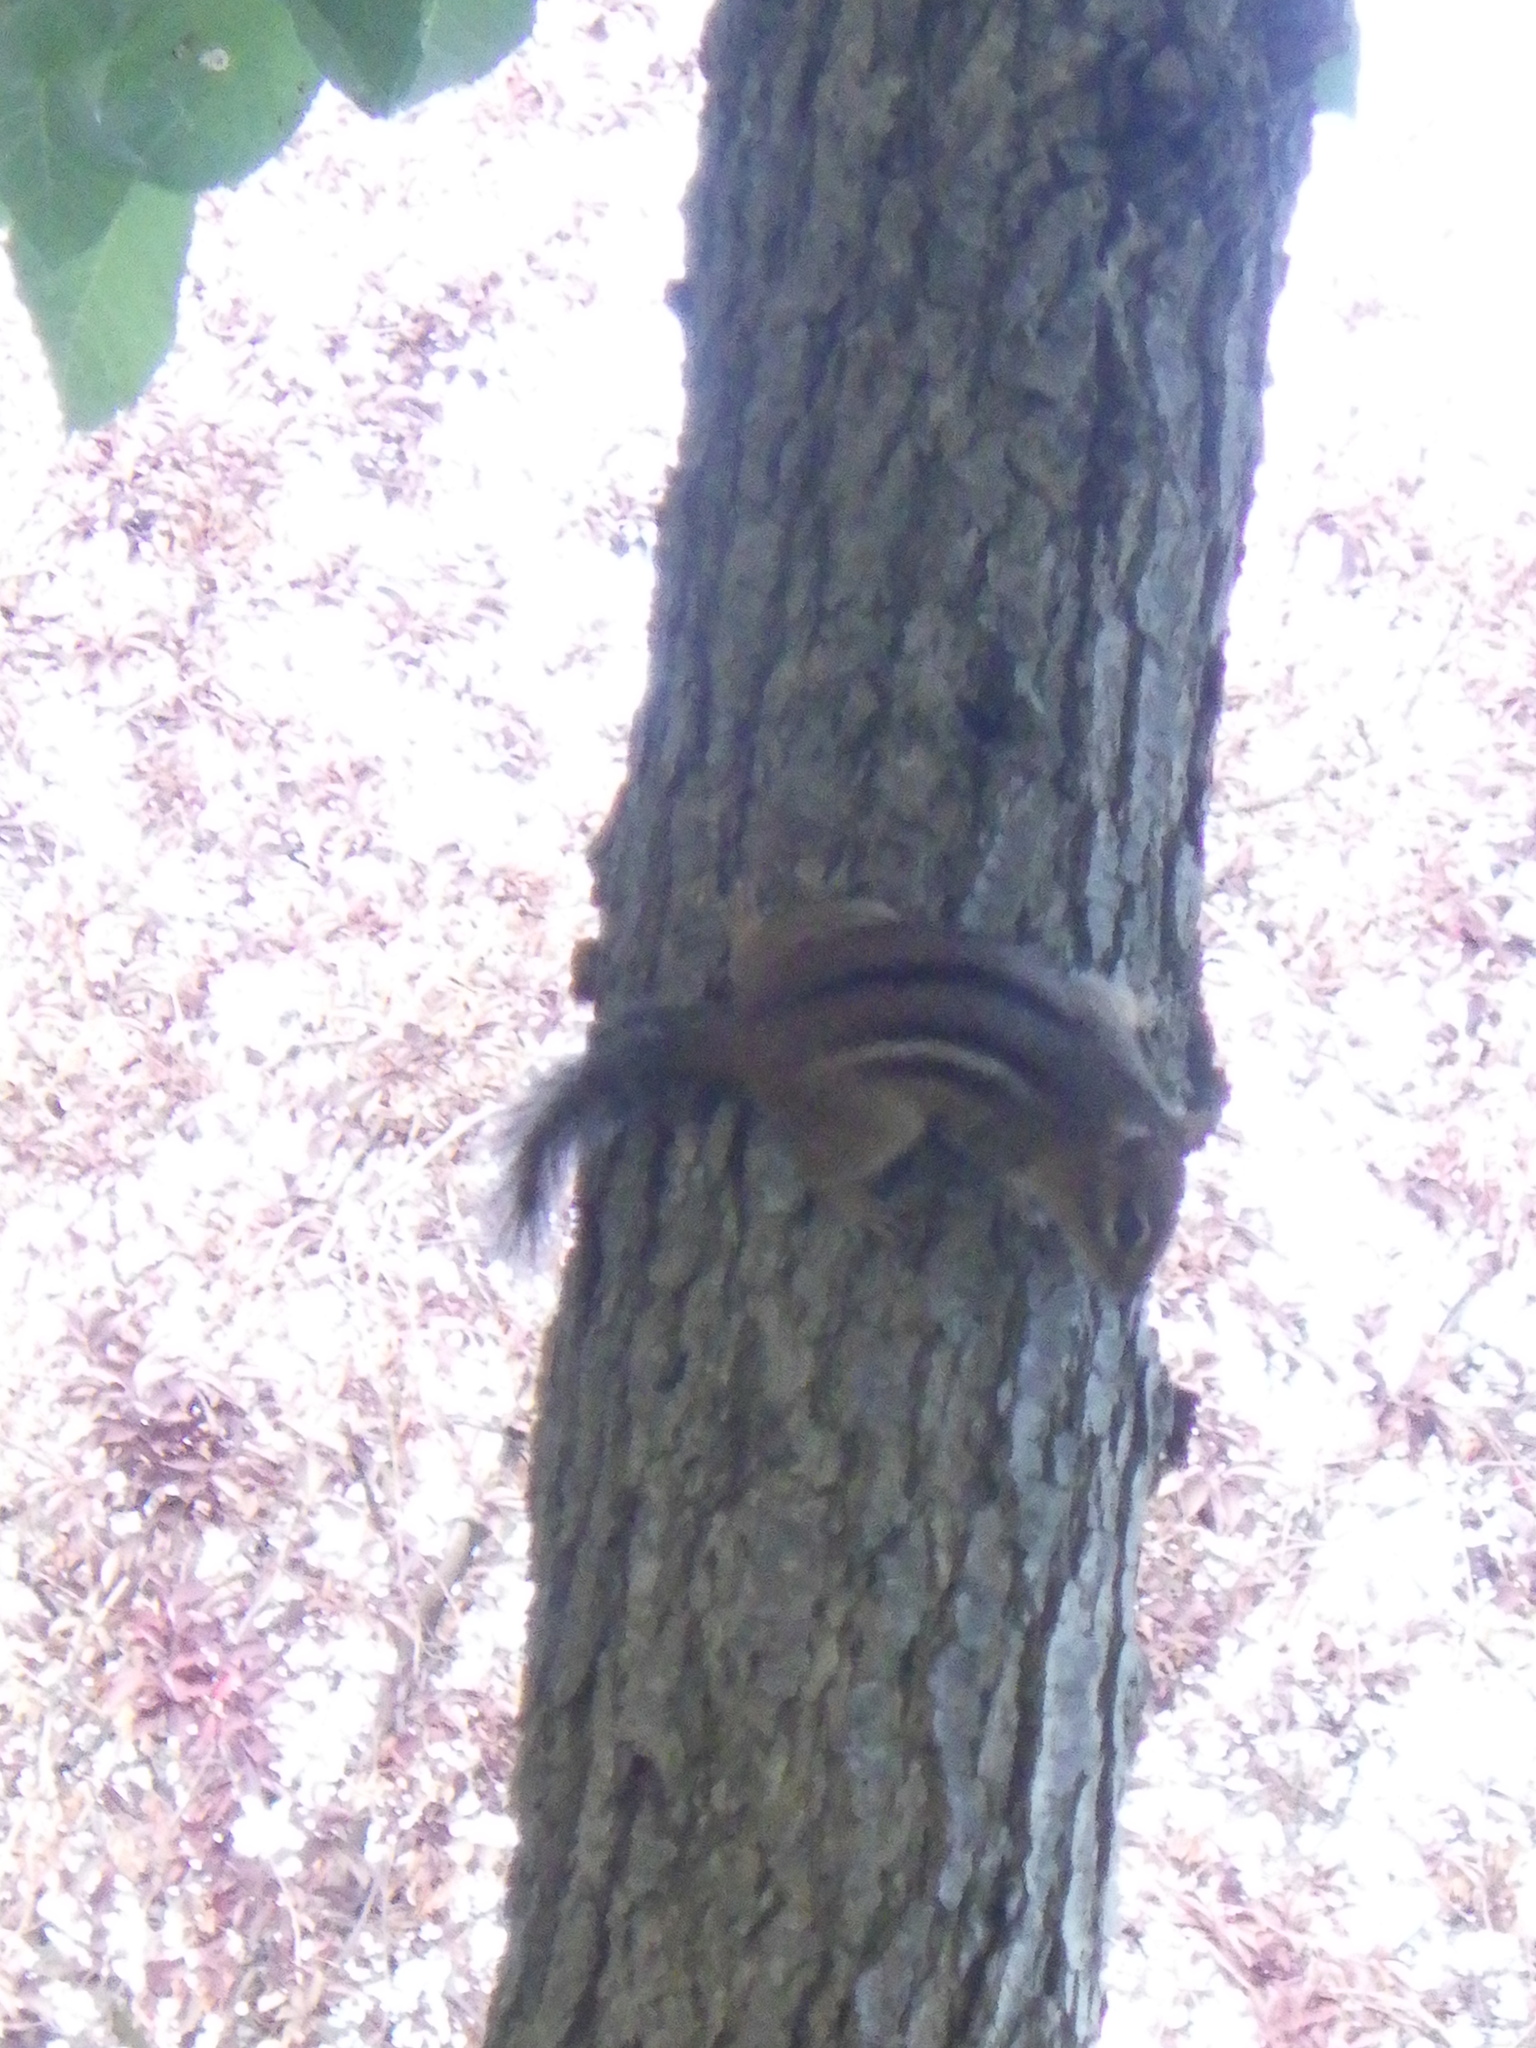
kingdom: Animalia
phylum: Chordata
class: Mammalia
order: Rodentia
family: Sciuridae
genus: Tamias
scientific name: Tamias striatus
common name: Eastern chipmunk
